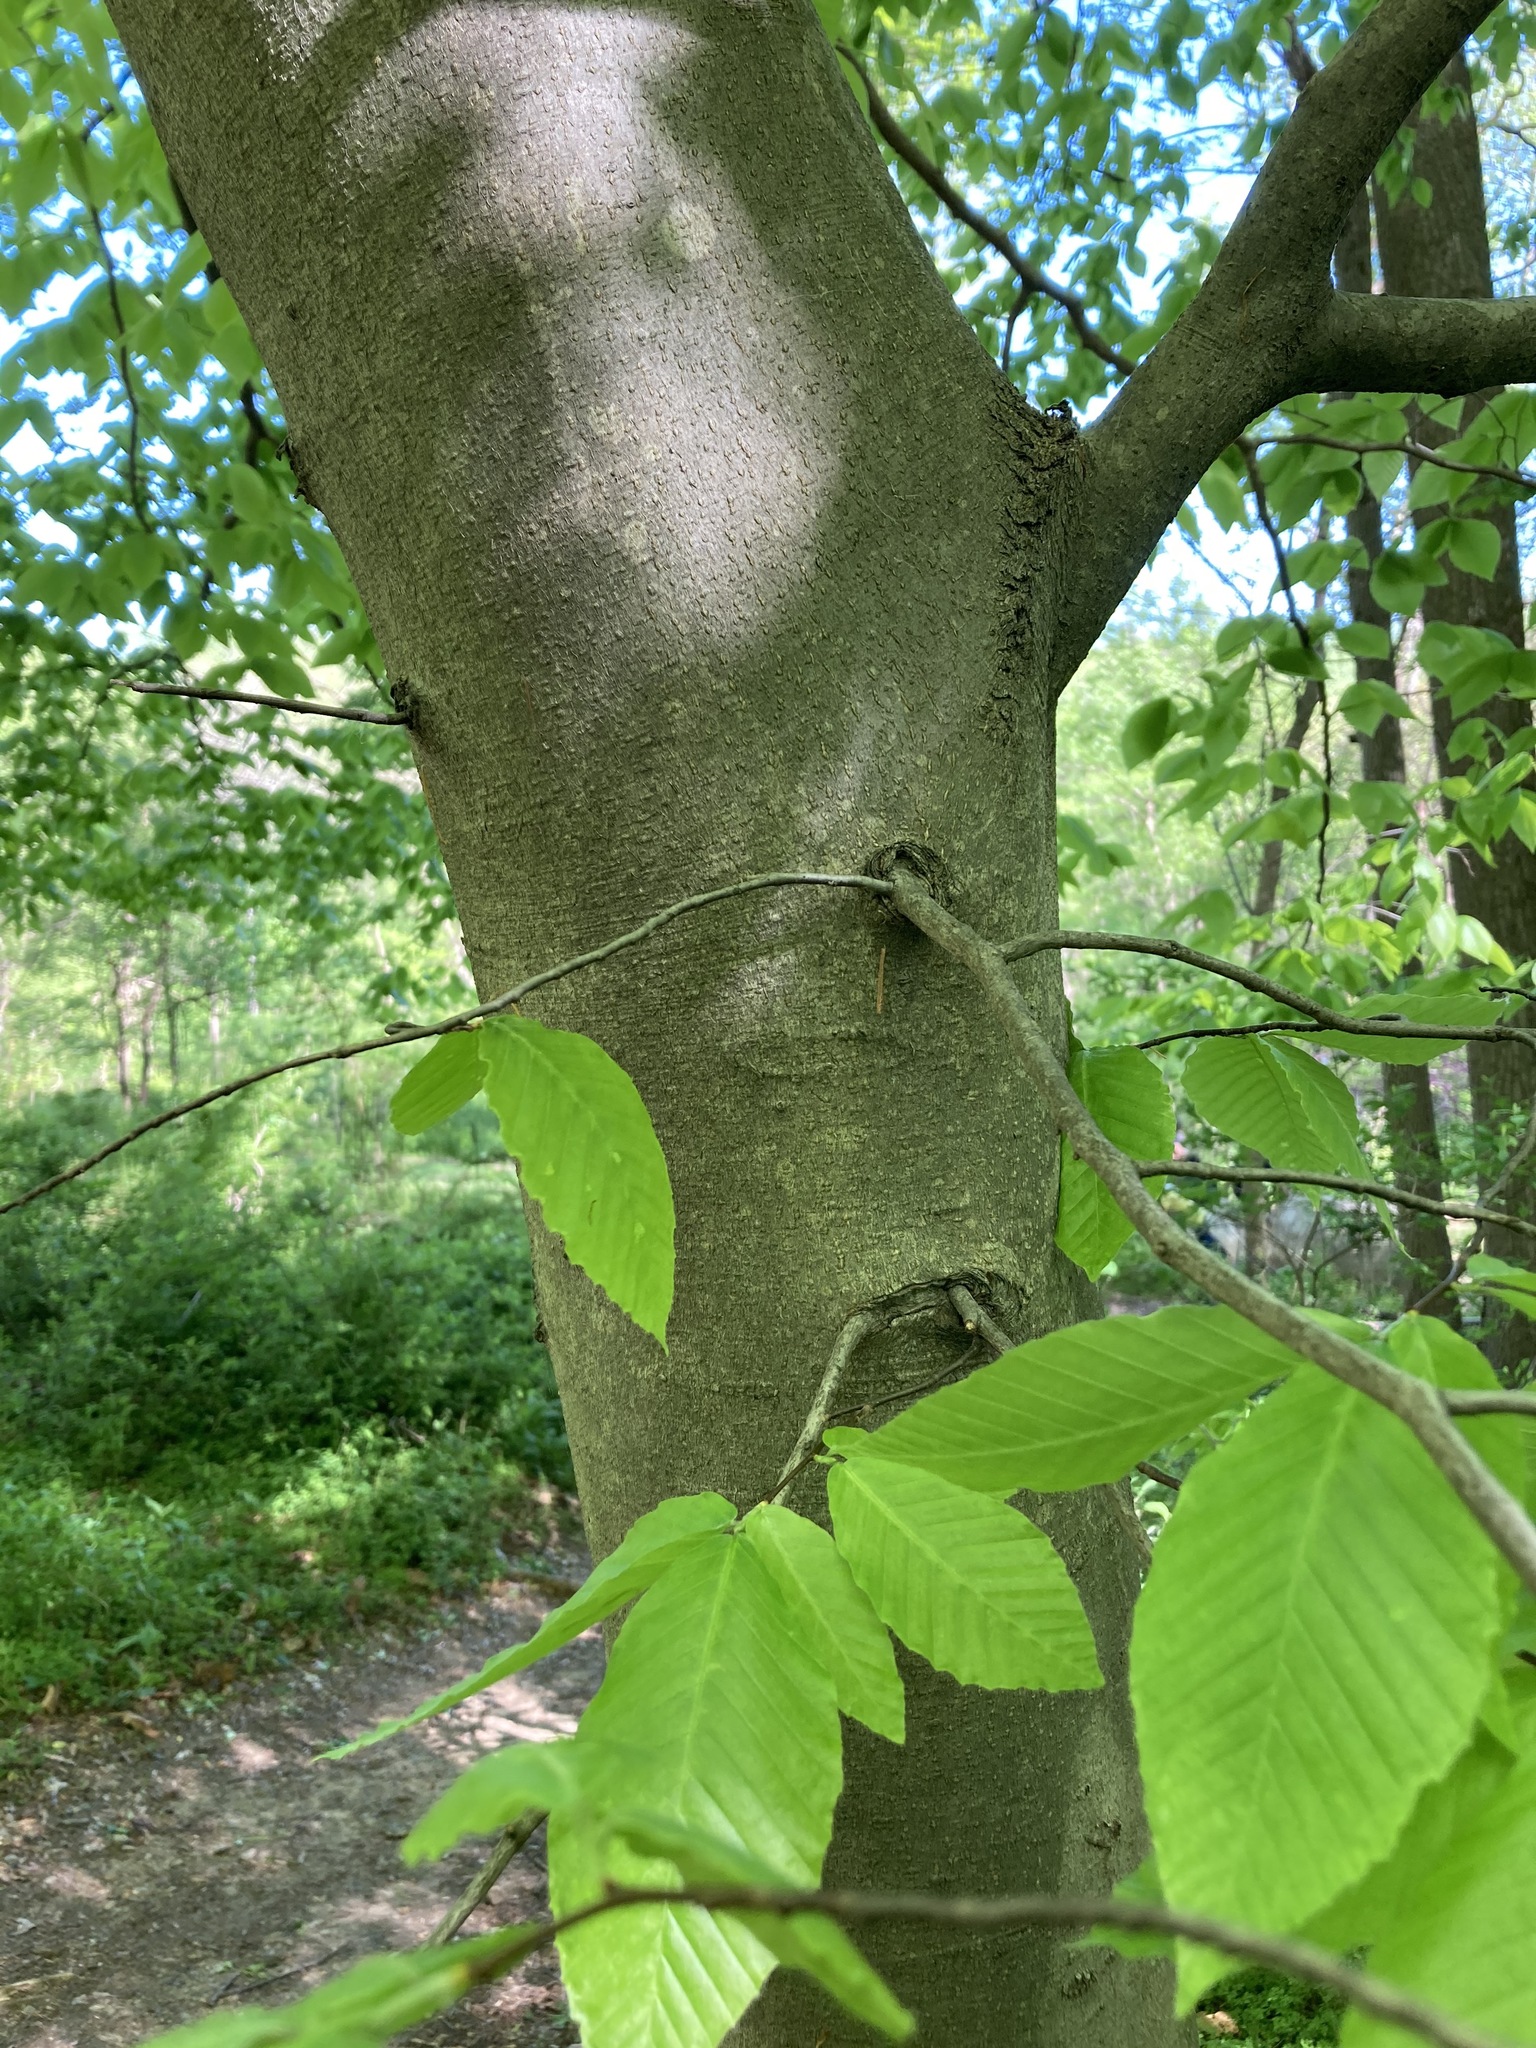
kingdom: Plantae
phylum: Tracheophyta
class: Magnoliopsida
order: Fagales
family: Fagaceae
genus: Fagus
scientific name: Fagus grandifolia
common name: American beech
